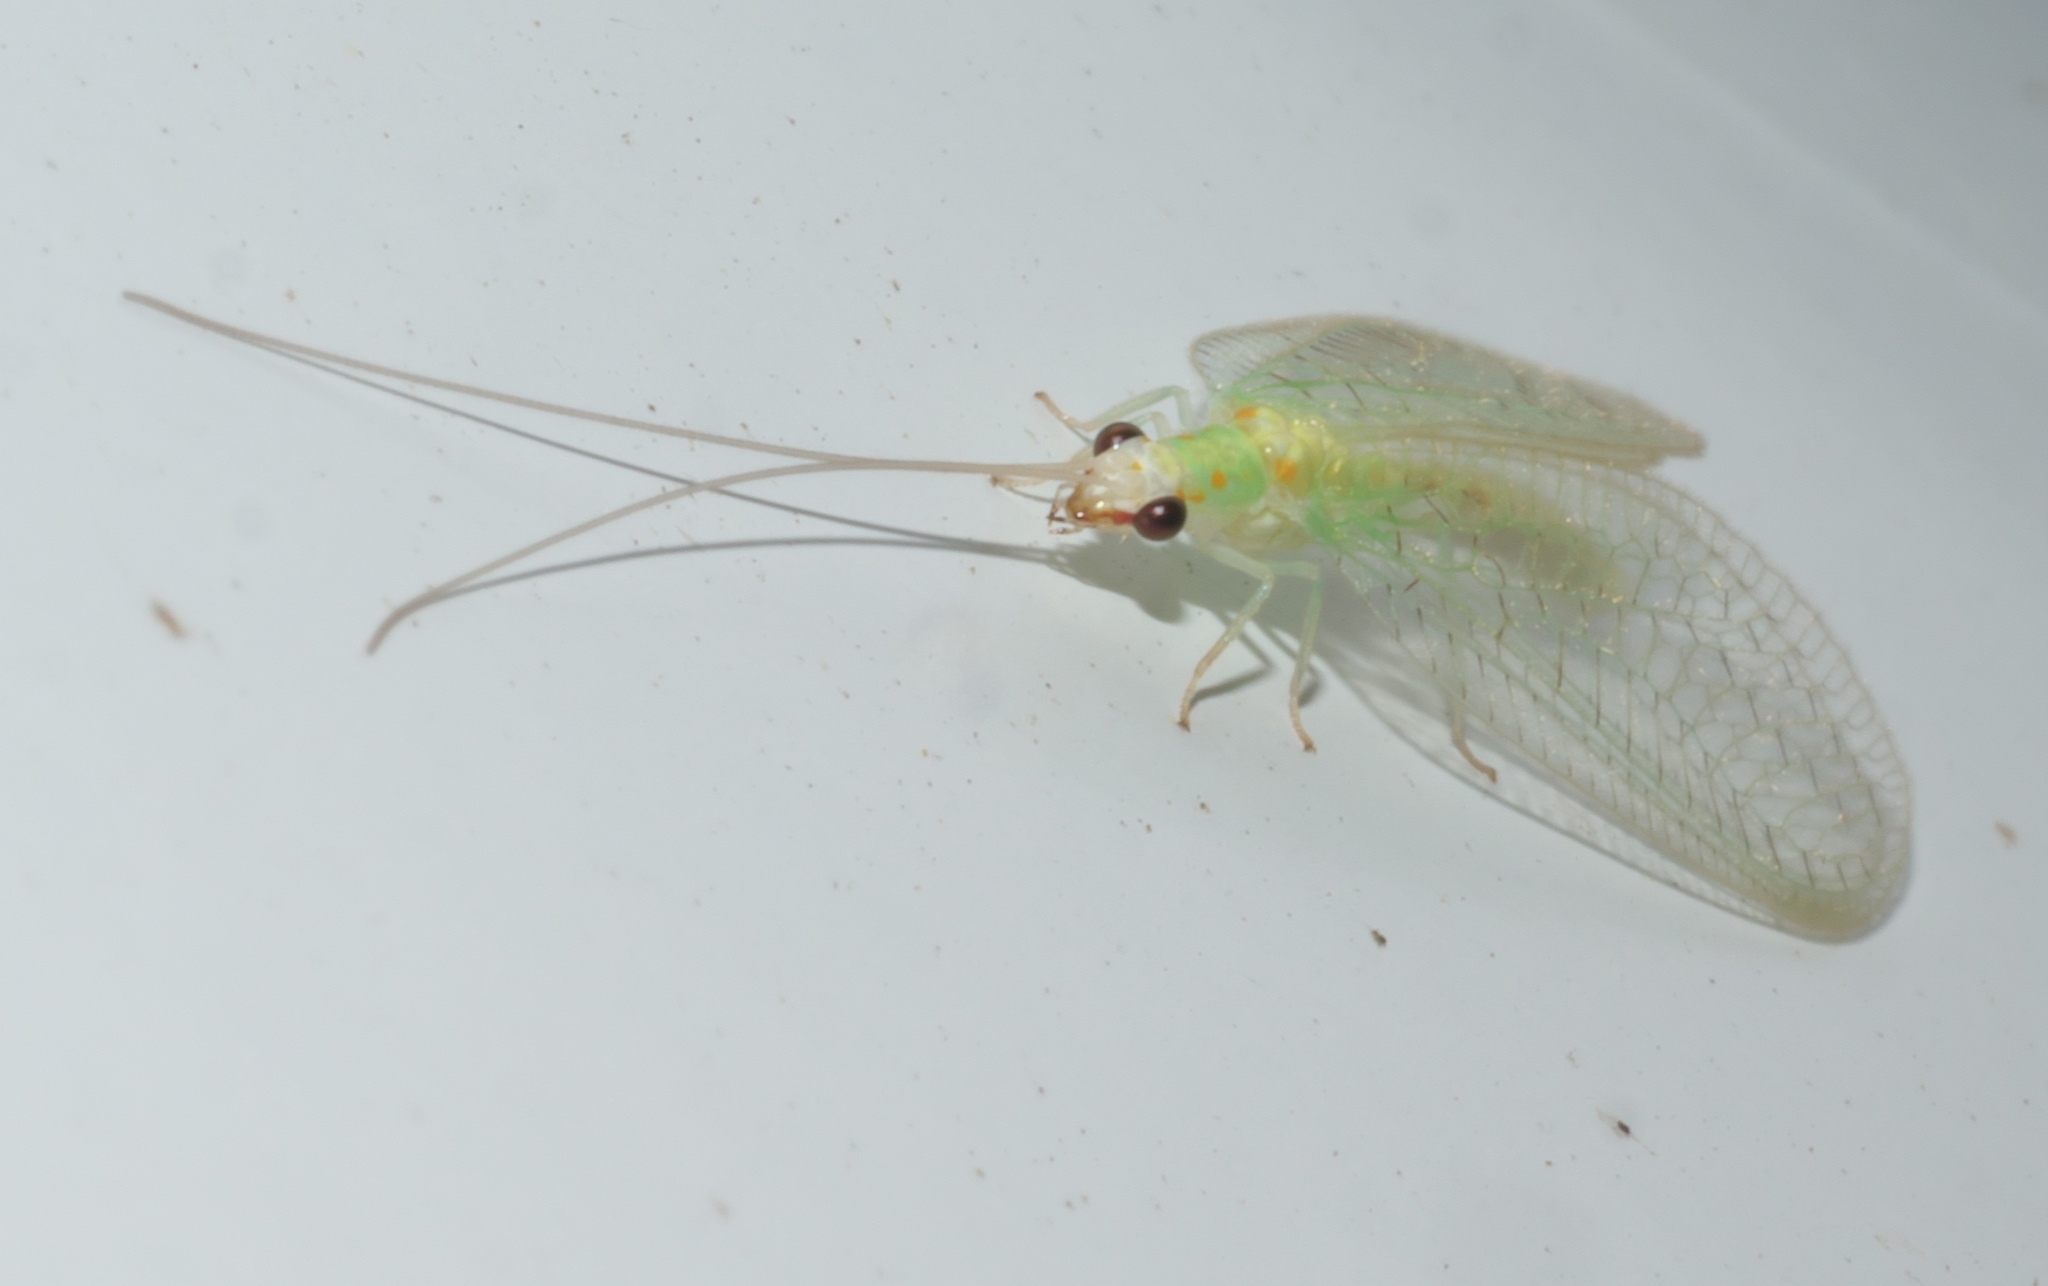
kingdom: Animalia
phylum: Arthropoda
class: Insecta
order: Neuroptera
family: Chrysopidae
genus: Chrysopa
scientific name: Chrysopa quadripunctata
